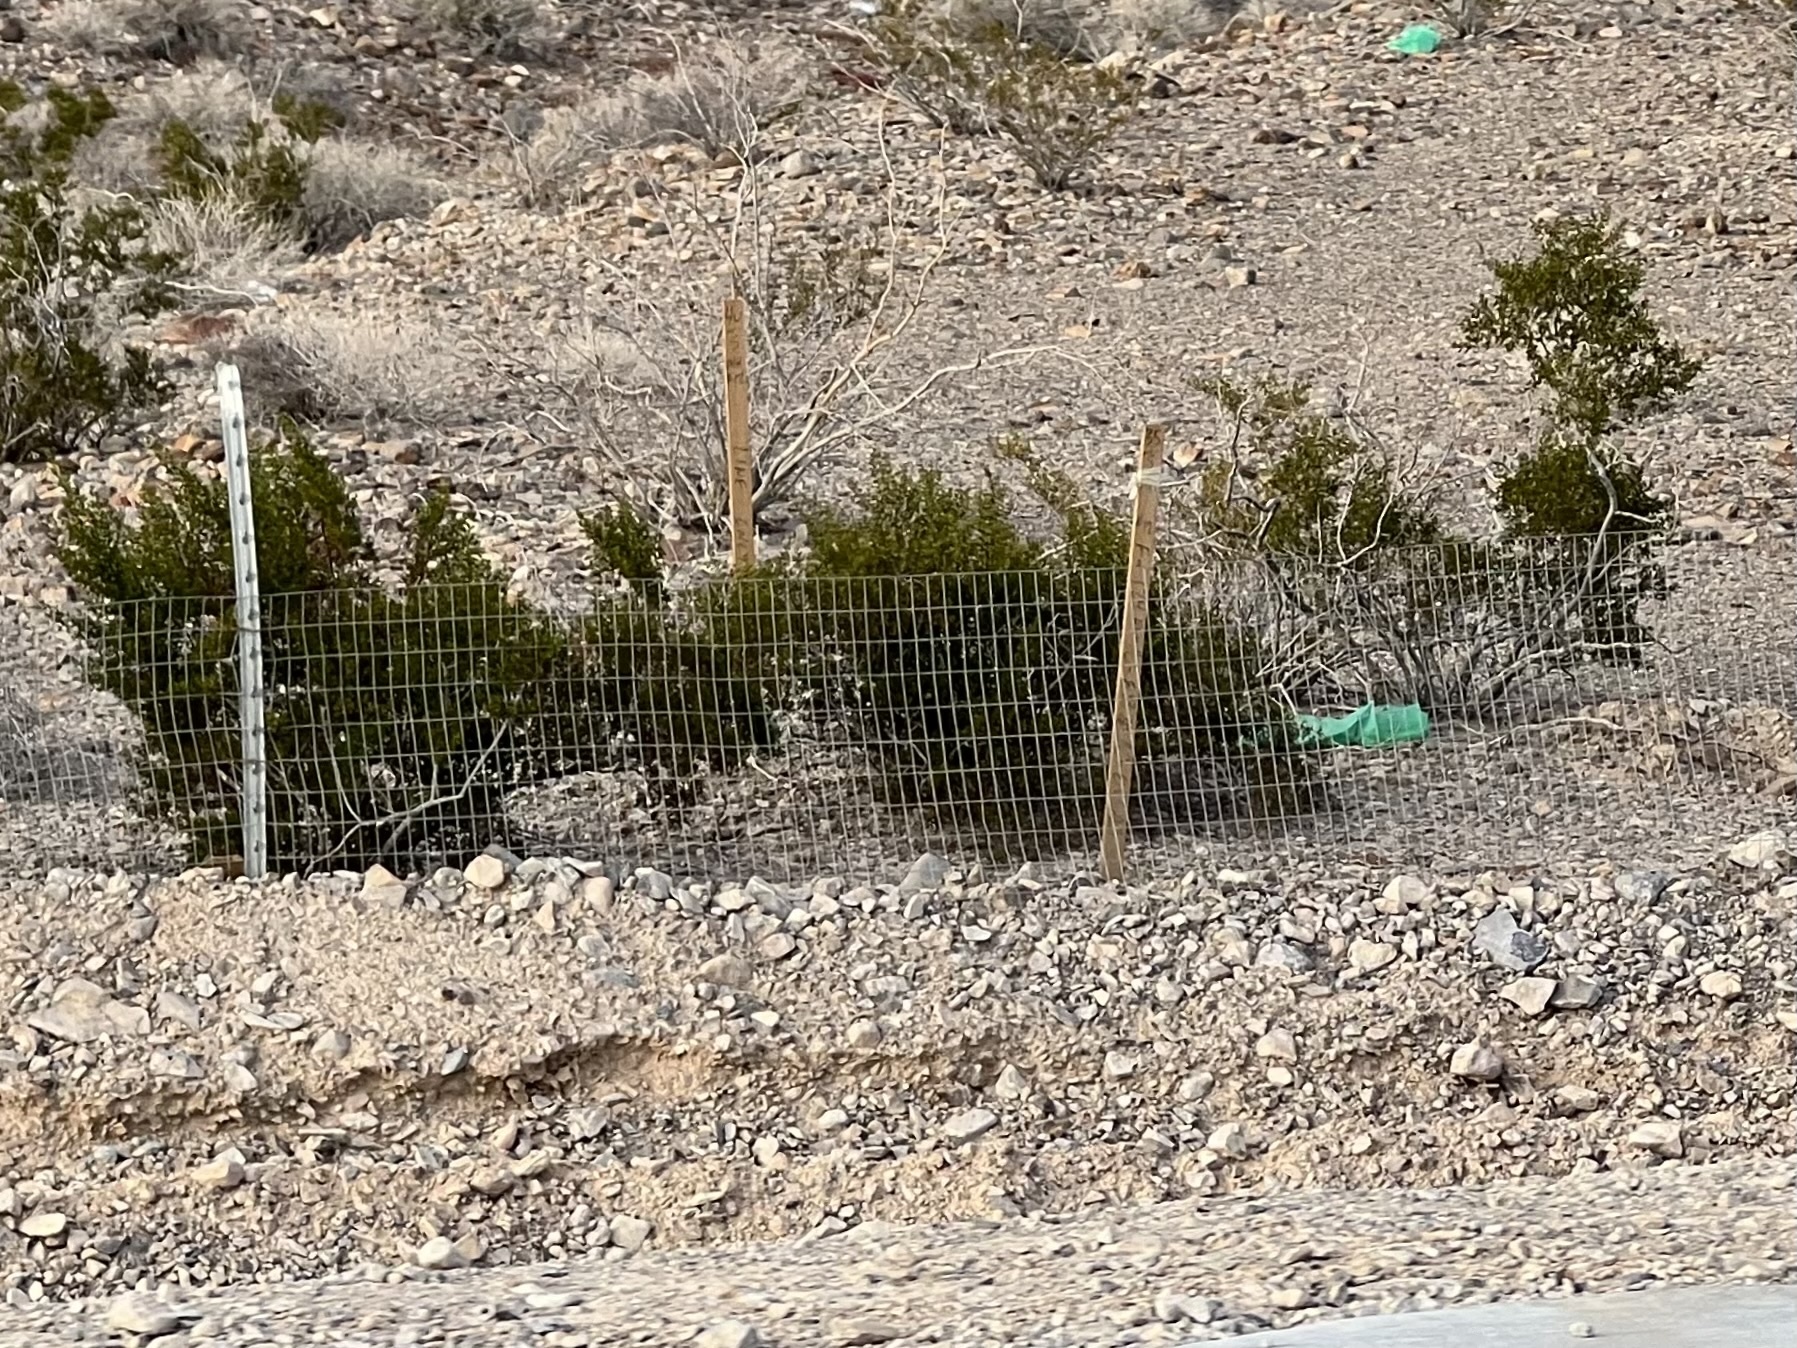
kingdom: Plantae
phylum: Tracheophyta
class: Magnoliopsida
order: Zygophyllales
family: Zygophyllaceae
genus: Larrea
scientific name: Larrea tridentata
